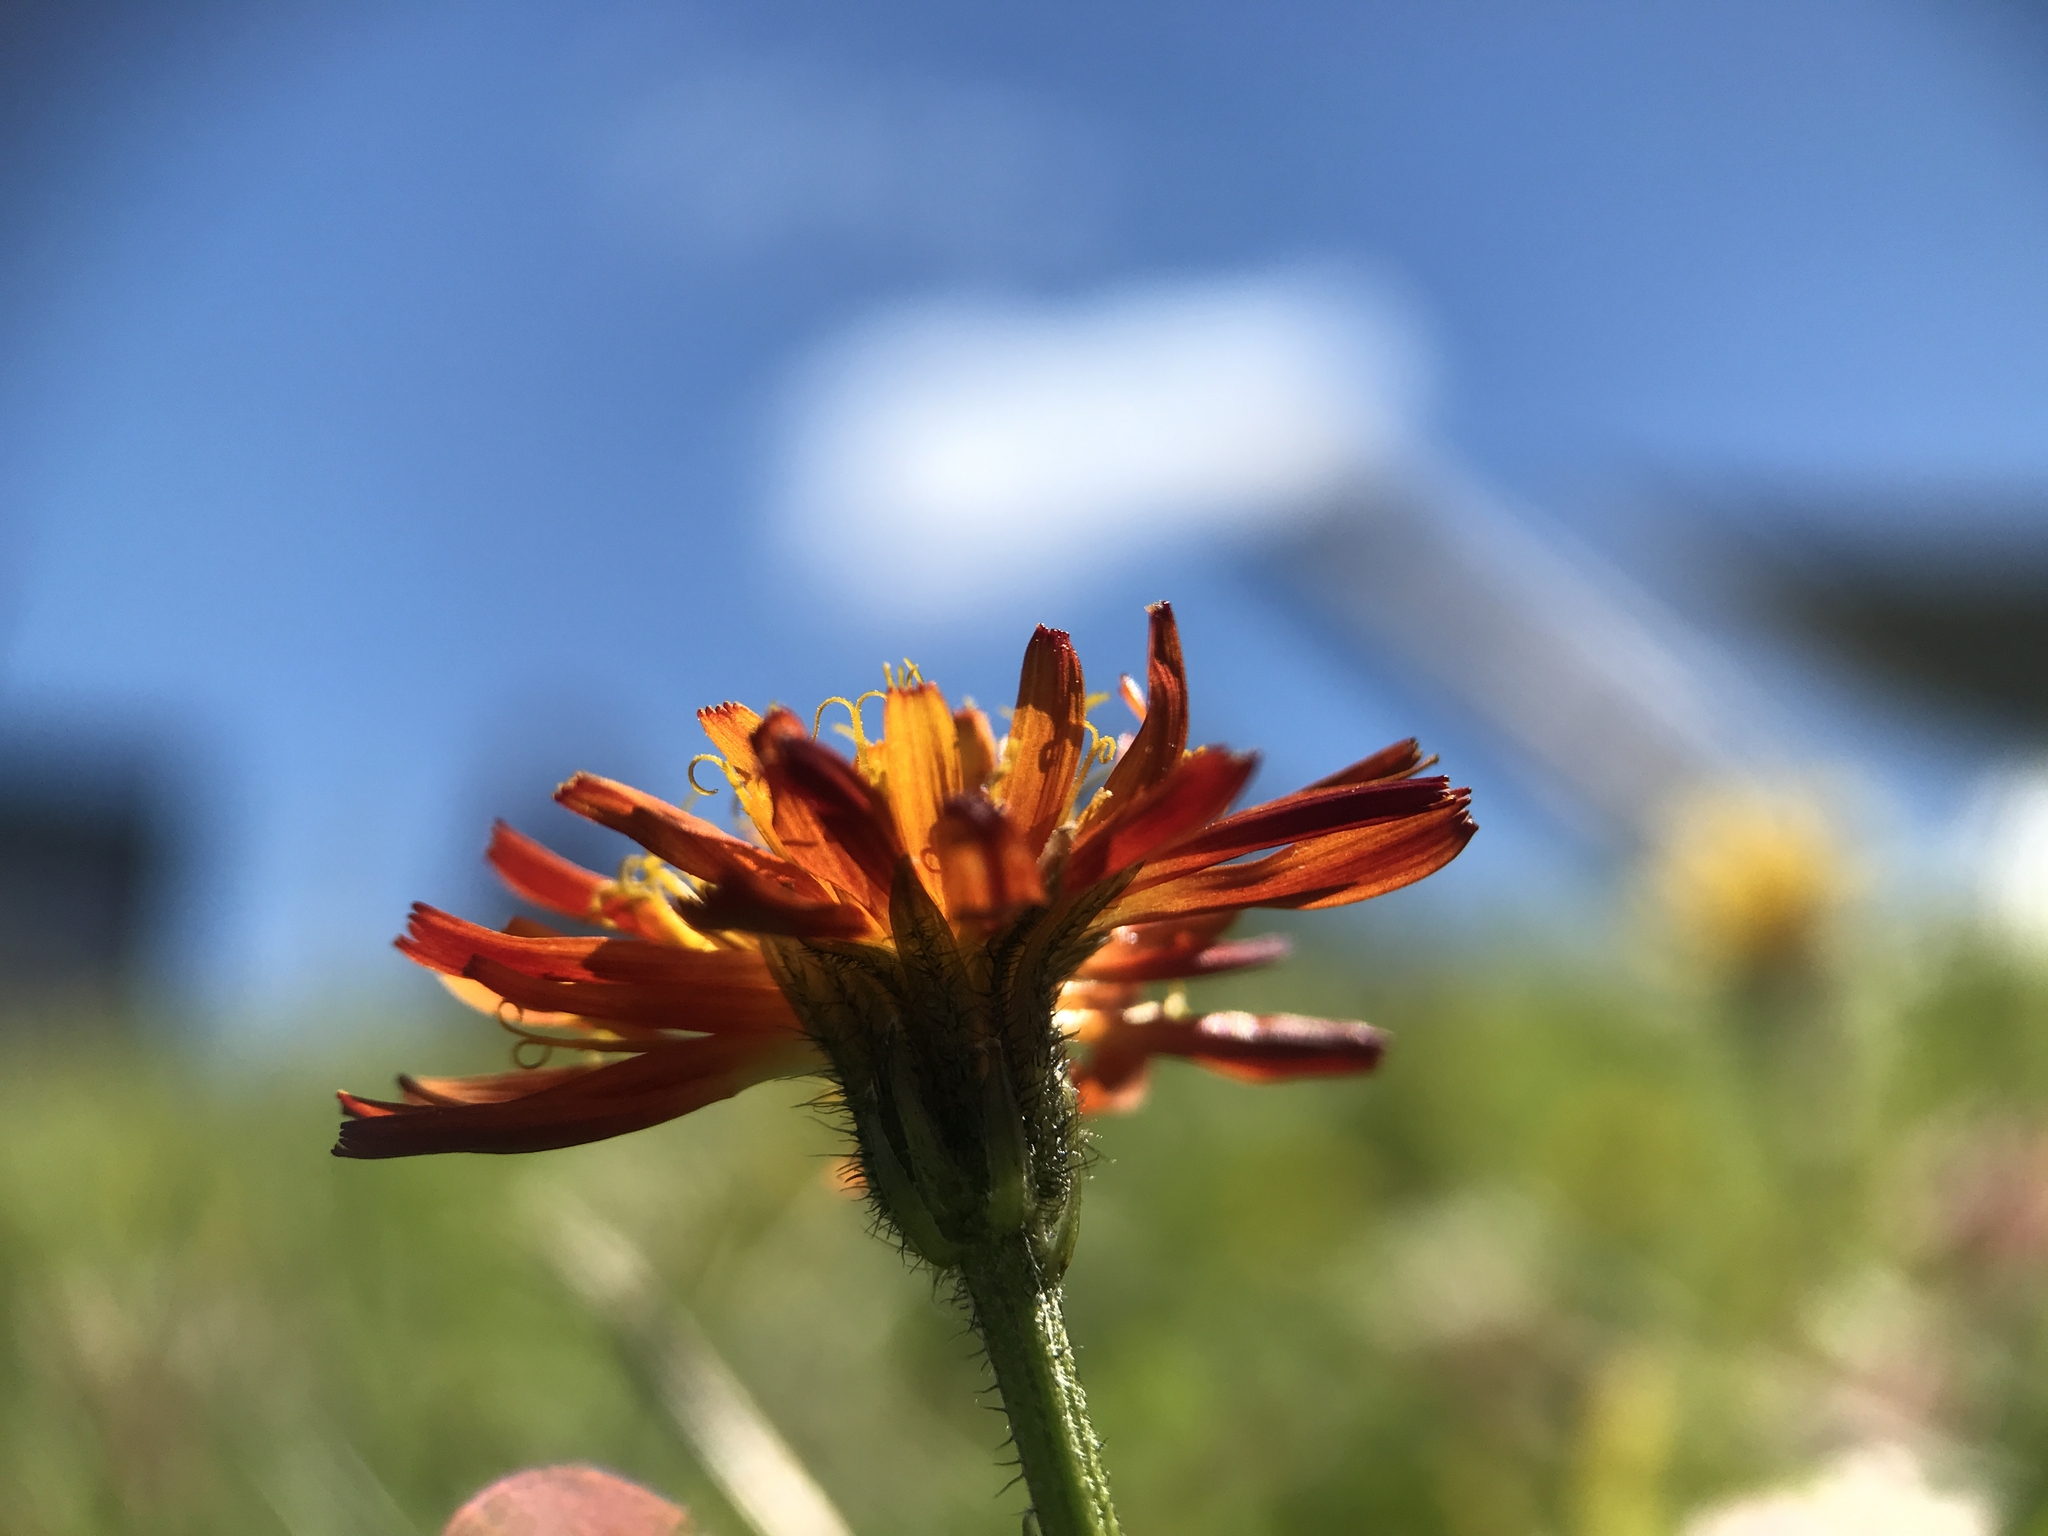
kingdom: Plantae
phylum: Tracheophyta
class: Magnoliopsida
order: Asterales
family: Asteraceae
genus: Crepis
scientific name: Crepis aurea
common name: Golden hawk's-beard
